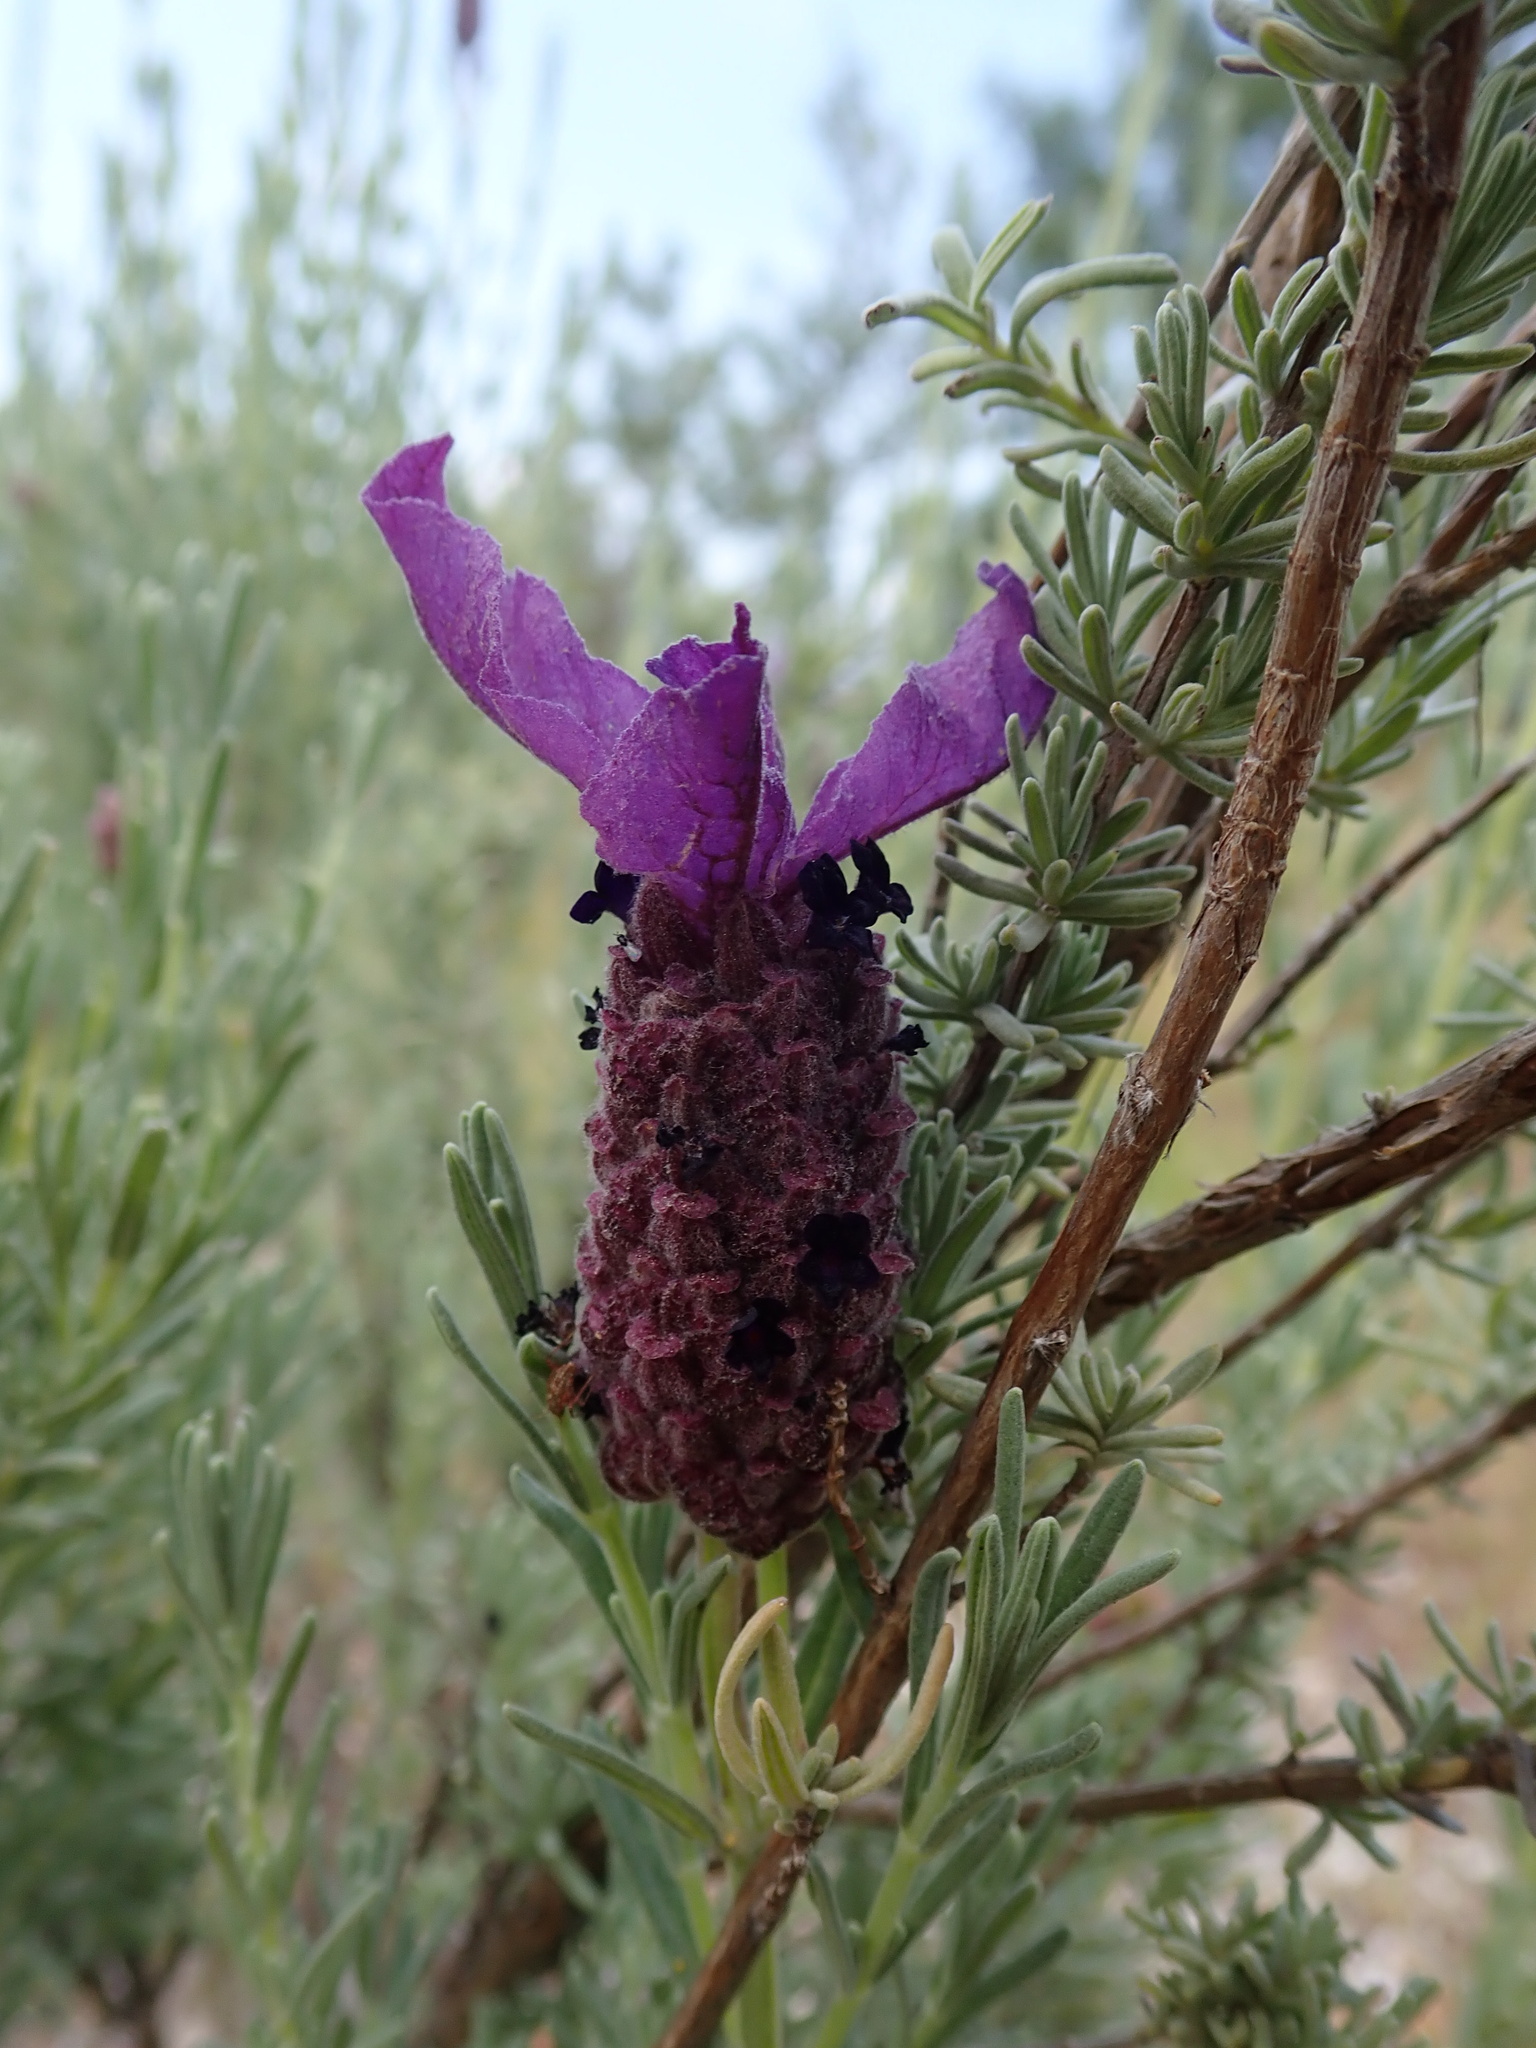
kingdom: Plantae
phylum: Tracheophyta
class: Magnoliopsida
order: Lamiales
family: Lamiaceae
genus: Lavandula
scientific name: Lavandula stoechas
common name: French lavender
